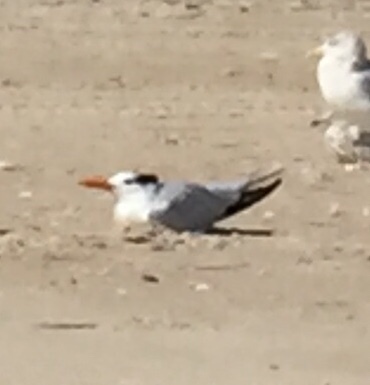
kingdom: Animalia
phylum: Chordata
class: Aves
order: Charadriiformes
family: Laridae
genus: Thalasseus
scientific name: Thalasseus maximus
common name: Royal tern
